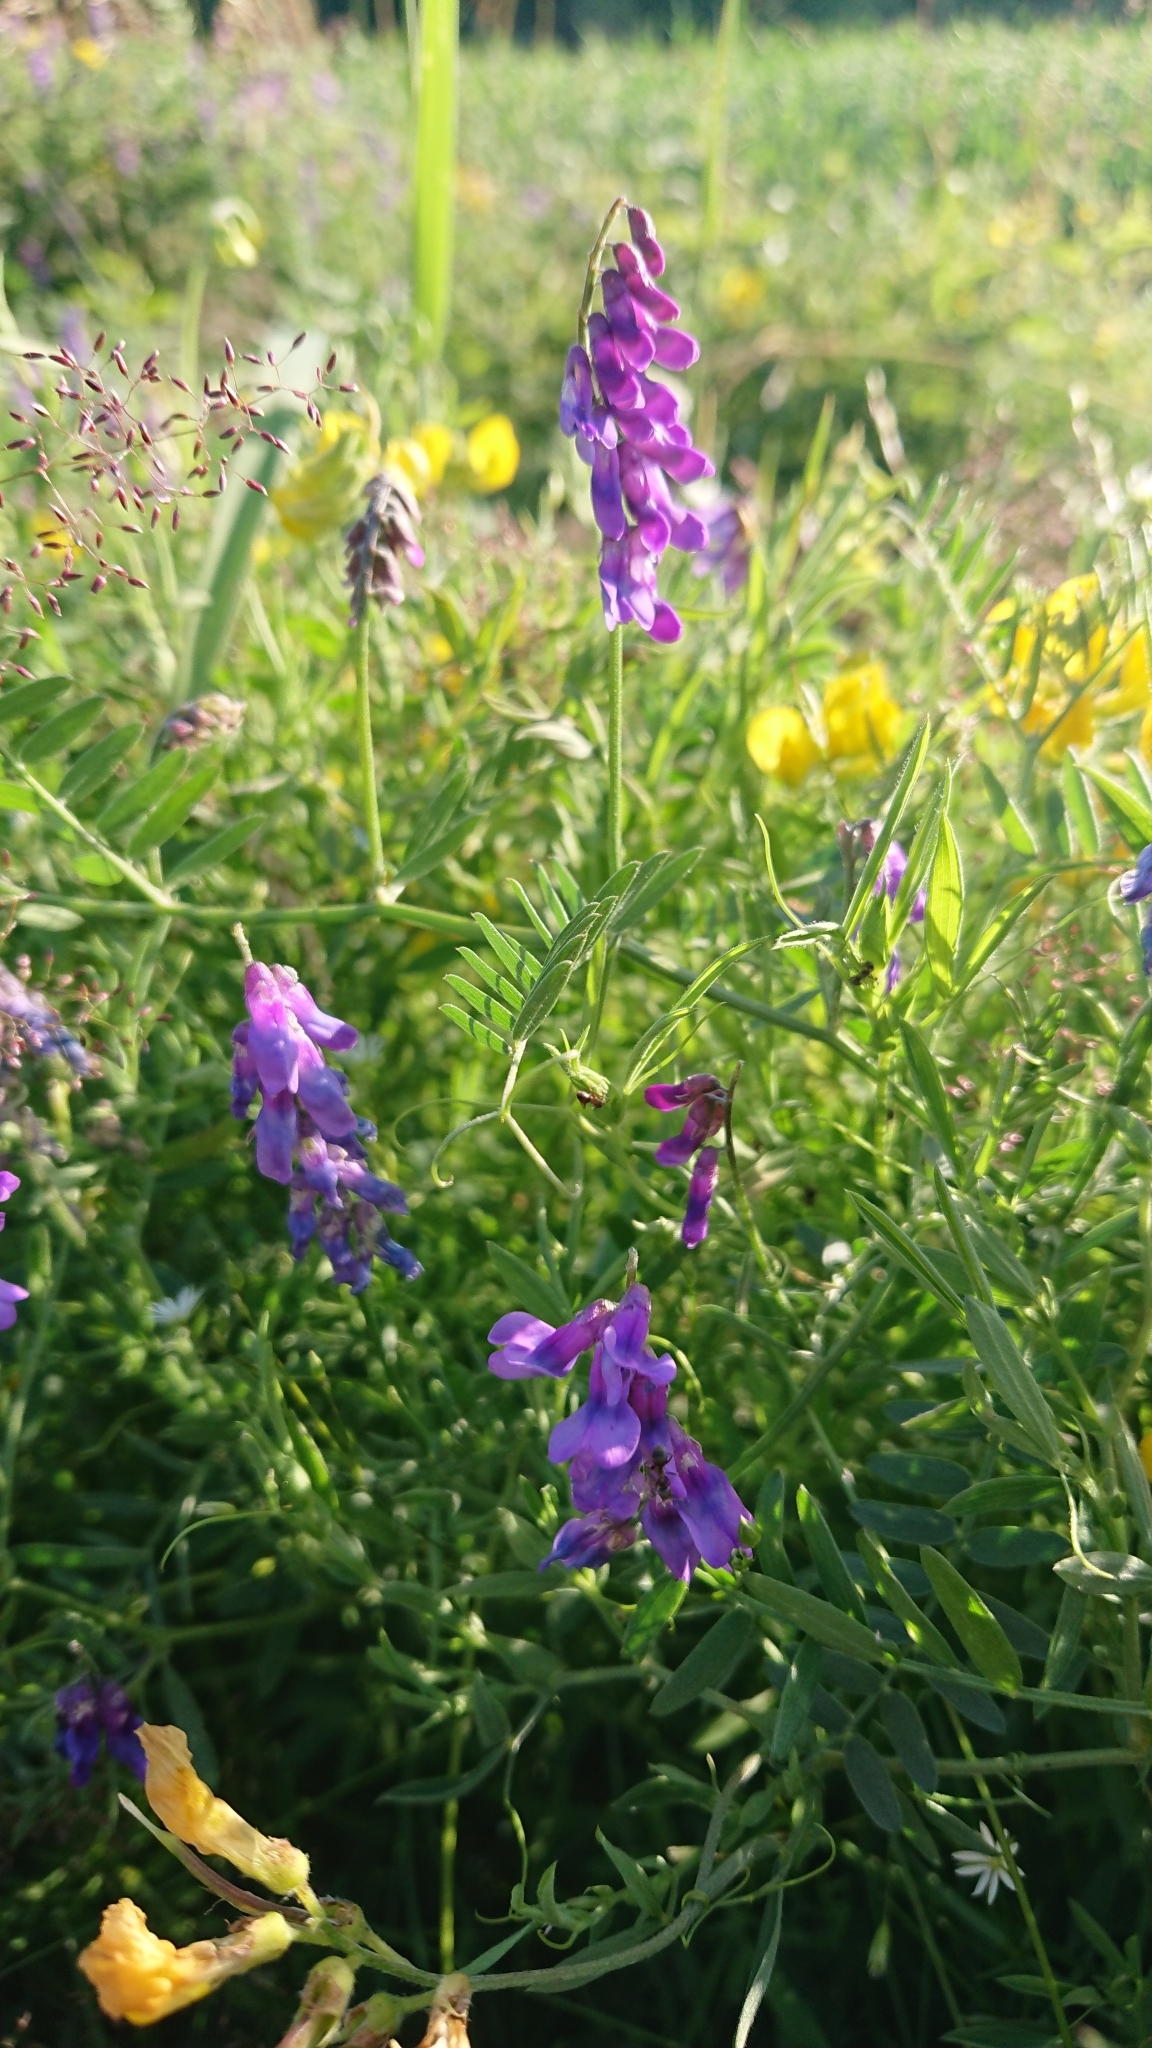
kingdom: Plantae
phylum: Tracheophyta
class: Magnoliopsida
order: Fabales
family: Fabaceae
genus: Vicia
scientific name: Vicia cracca
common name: Bird vetch
